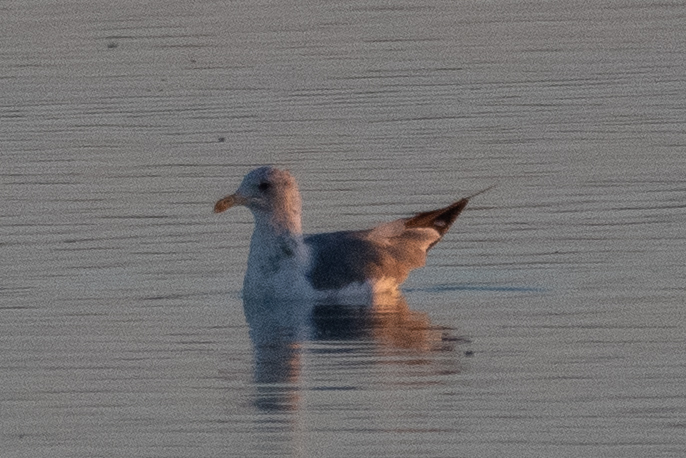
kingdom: Animalia
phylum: Chordata
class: Aves
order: Charadriiformes
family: Laridae
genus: Larus
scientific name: Larus californicus
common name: California gull
